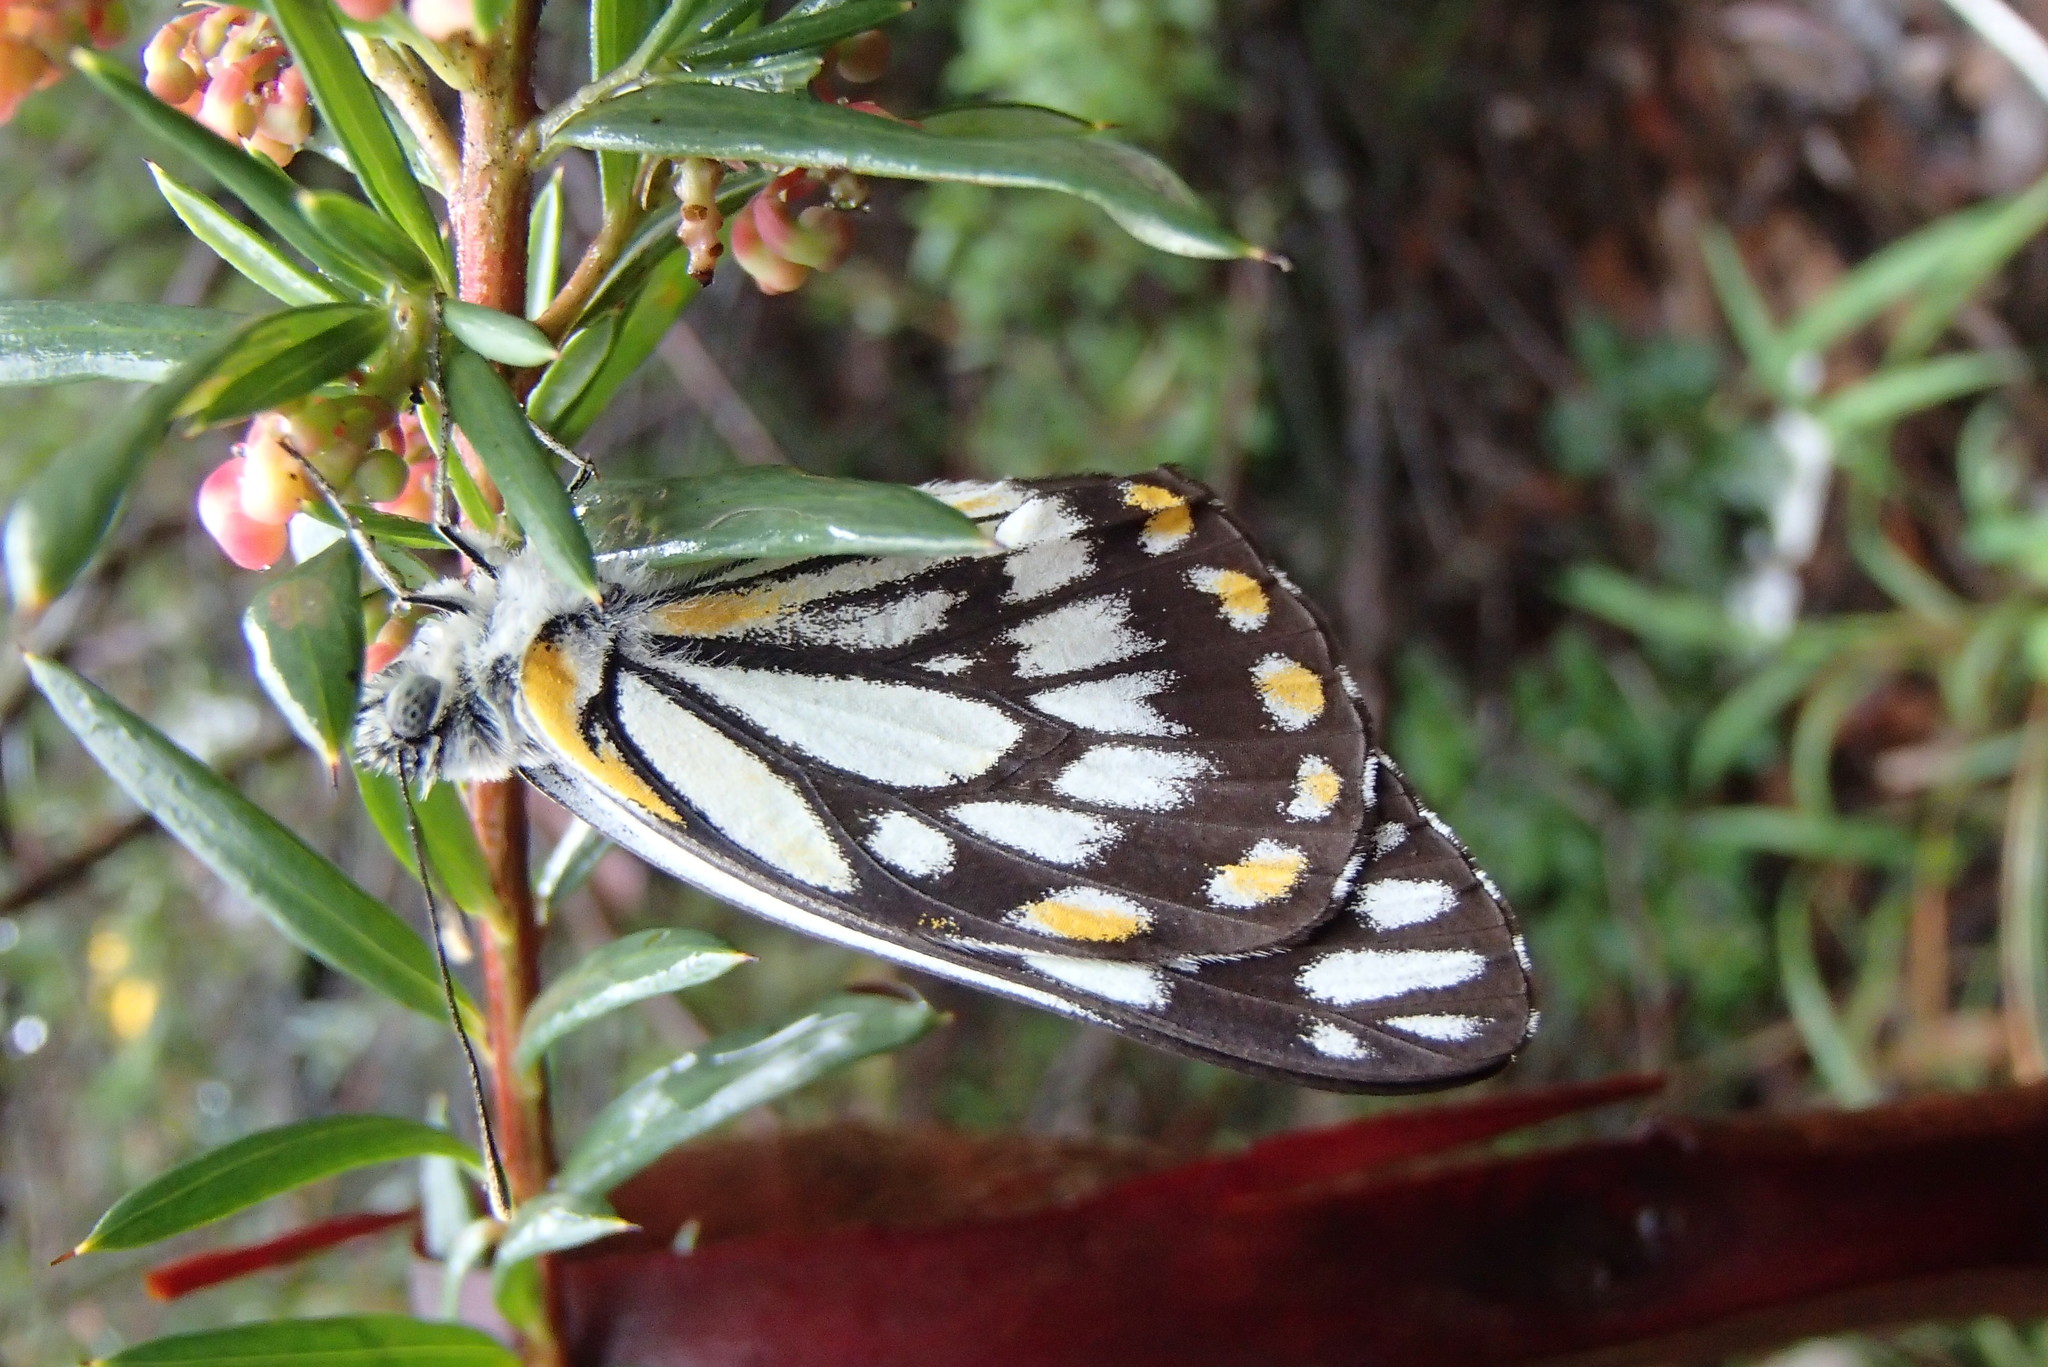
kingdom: Animalia
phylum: Arthropoda
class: Insecta
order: Lepidoptera
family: Pieridae
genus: Belenois
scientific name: Belenois java
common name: Caper white
